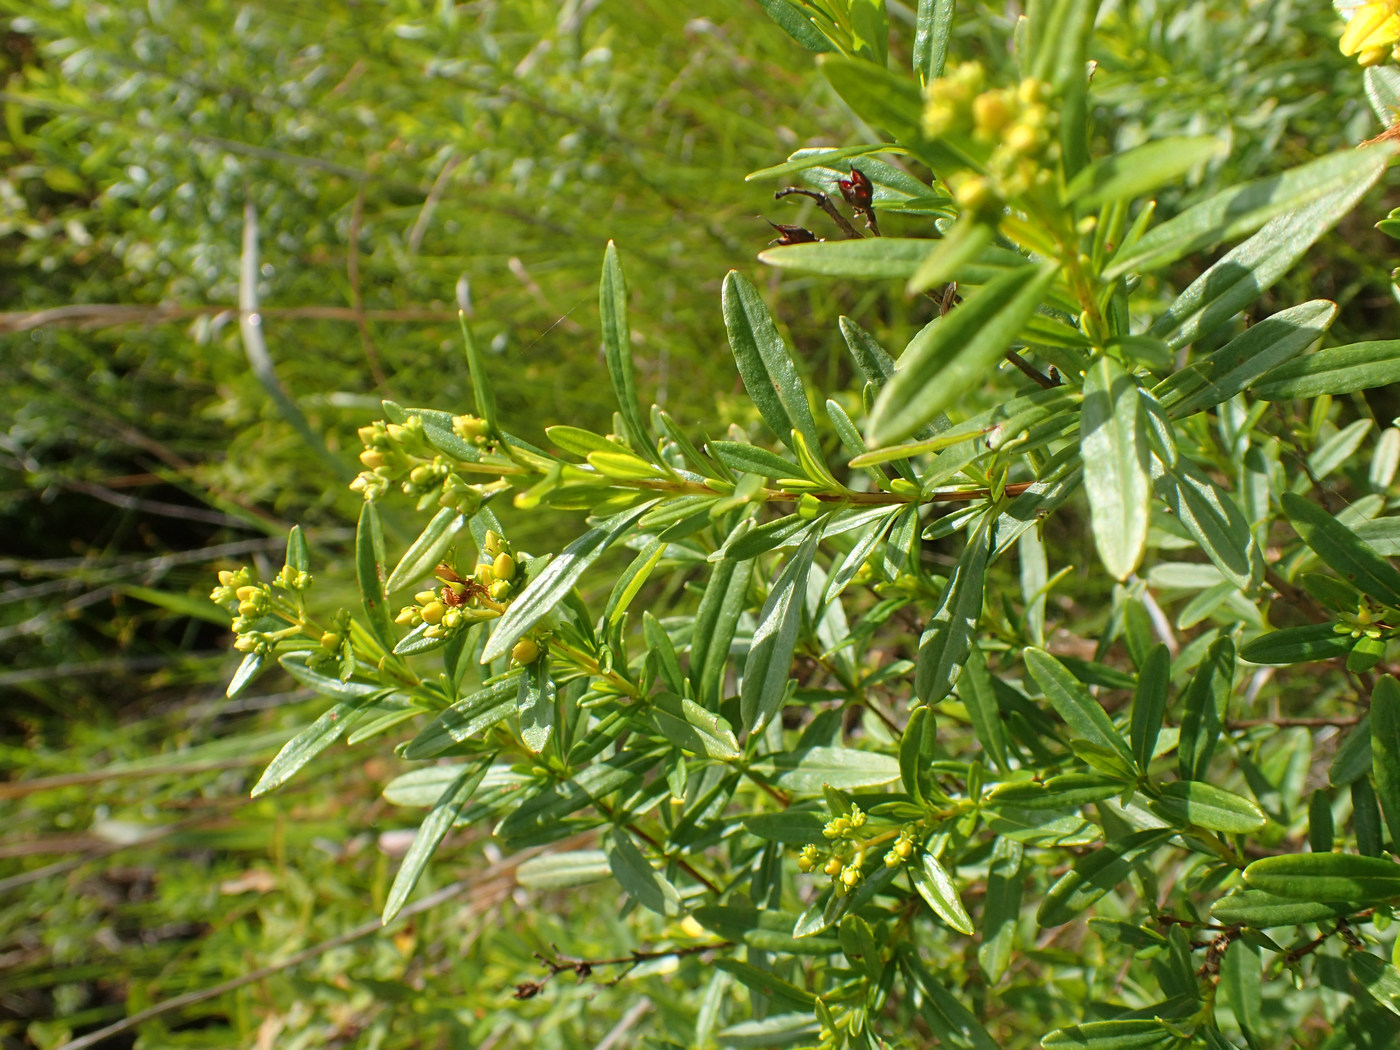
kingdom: Plantae
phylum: Tracheophyta
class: Magnoliopsida
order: Malpighiales
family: Hypericaceae
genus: Hypericum
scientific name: Hypericum prolificum
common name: Shrubby st. john's-wort
